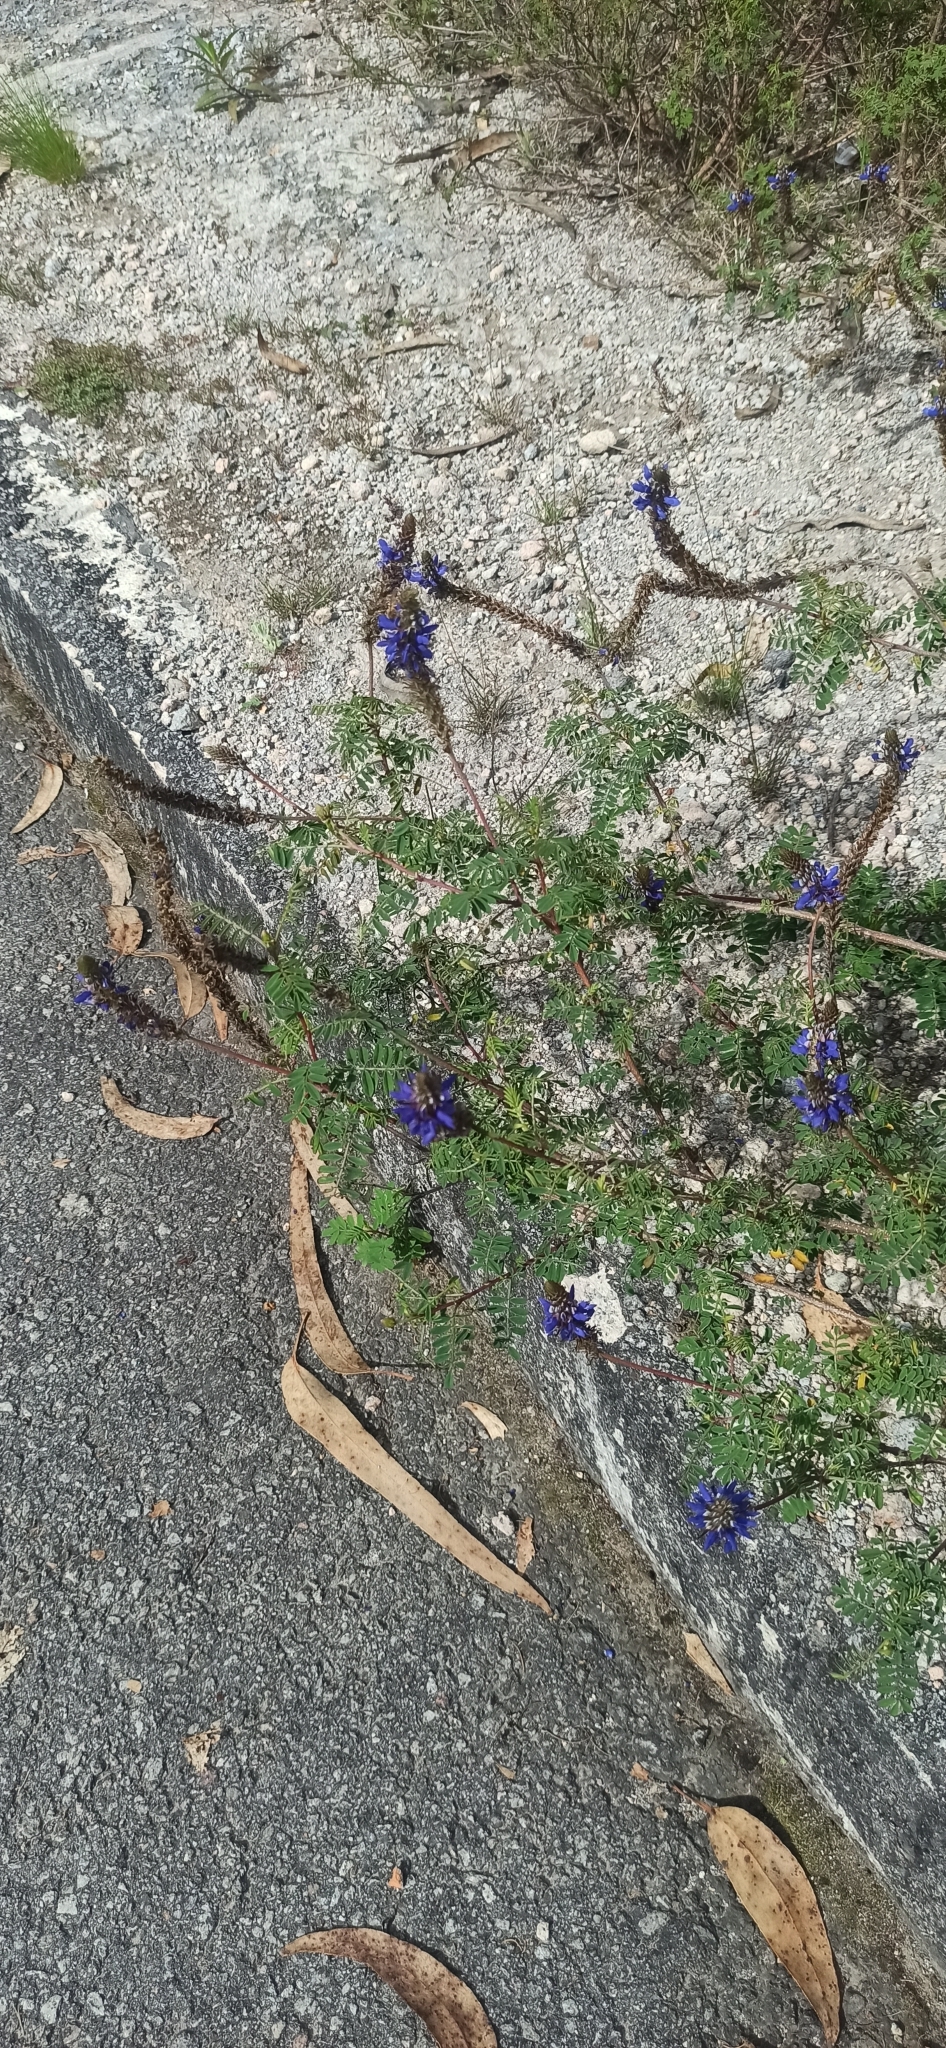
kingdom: Plantae
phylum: Tracheophyta
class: Magnoliopsida
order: Fabales
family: Fabaceae
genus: Dalea
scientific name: Dalea coerulea
